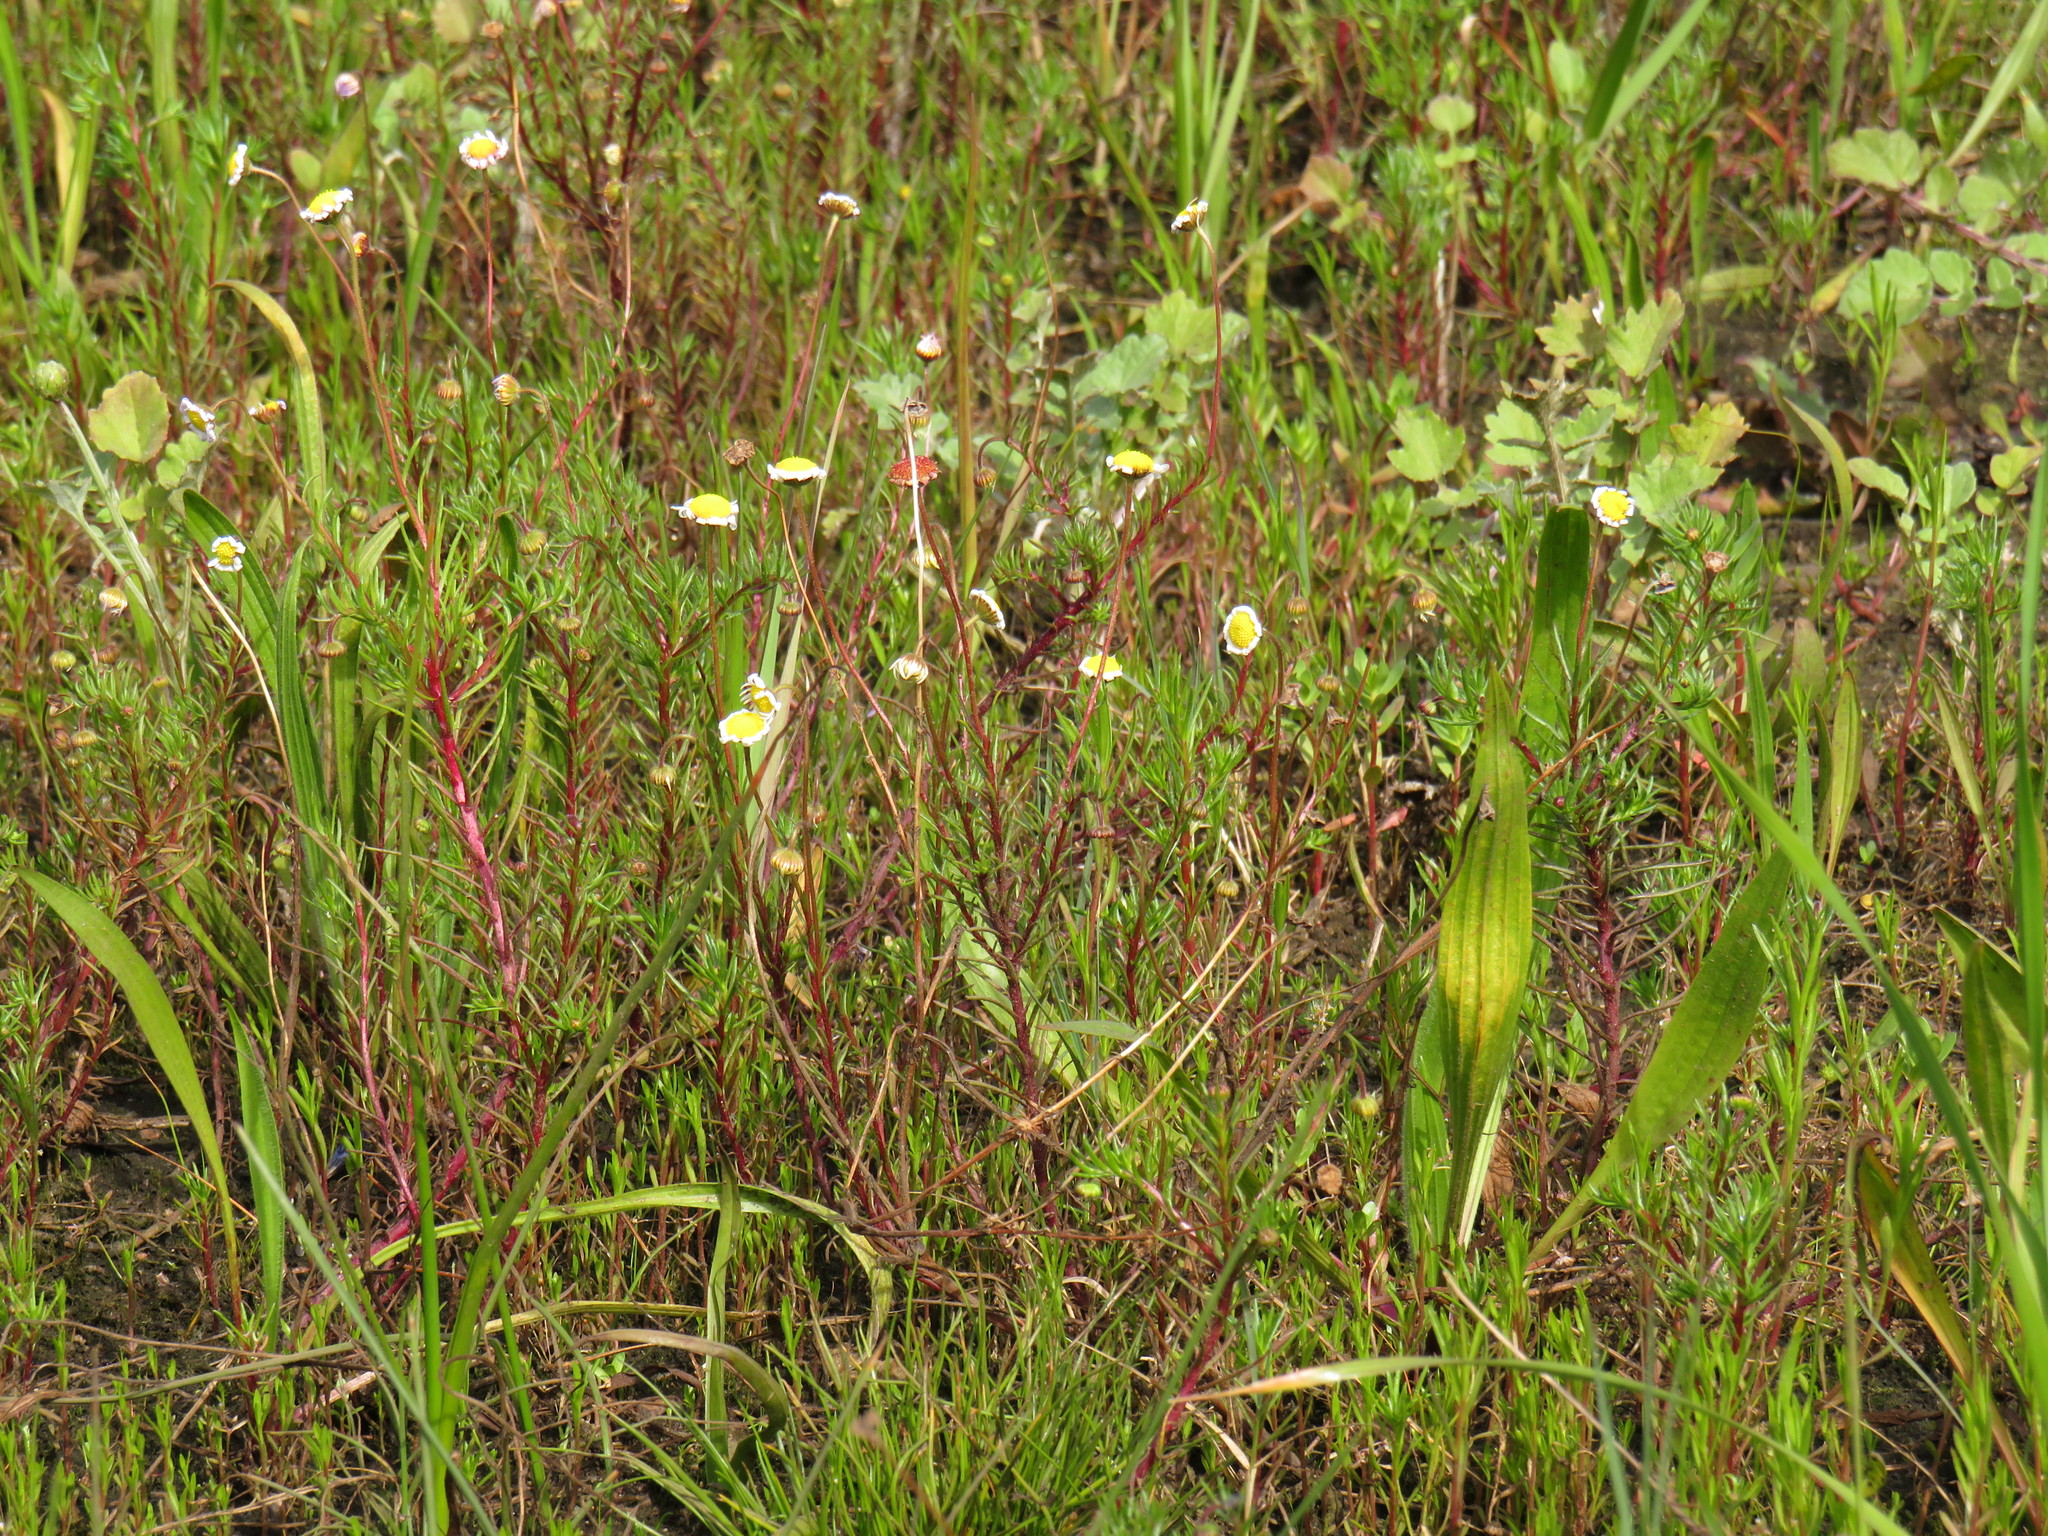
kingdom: Plantae
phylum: Tracheophyta
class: Magnoliopsida
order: Asterales
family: Asteraceae
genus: Felicia
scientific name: Felicia tenella
